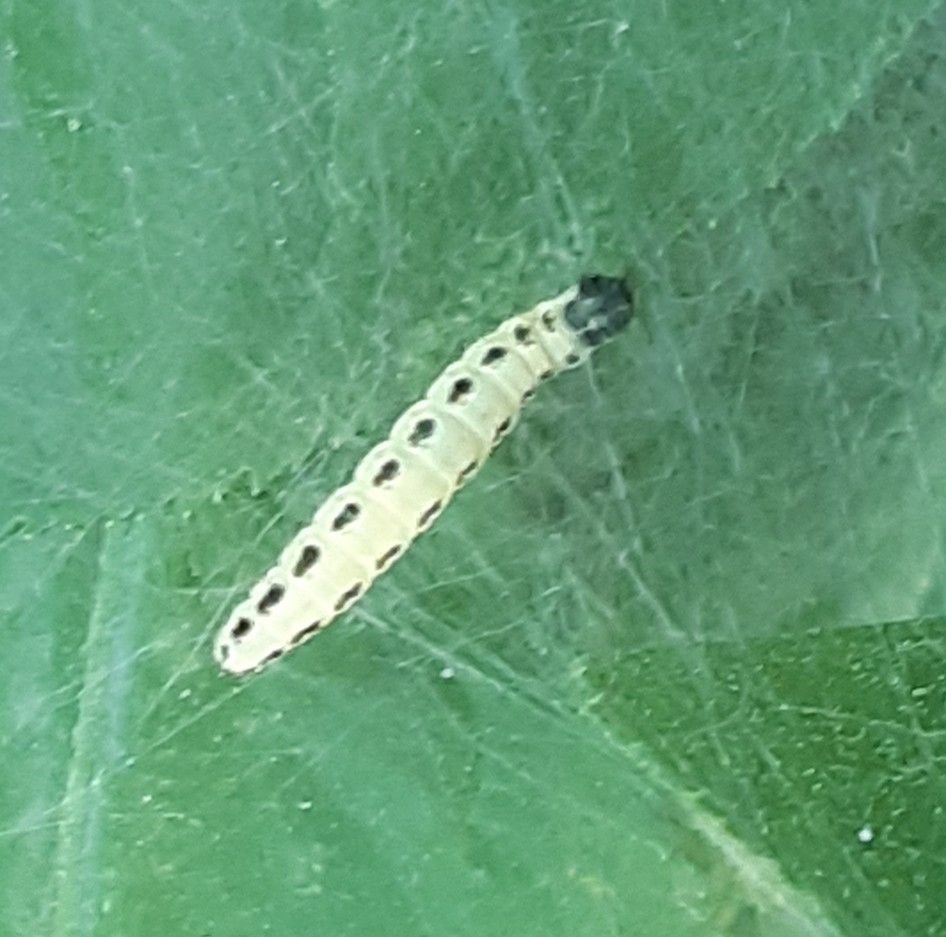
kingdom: Animalia
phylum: Arthropoda
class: Insecta
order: Lepidoptera
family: Yponomeutidae
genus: Yponomeuta
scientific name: Yponomeuta evonymella
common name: Bird-cherry ermine
